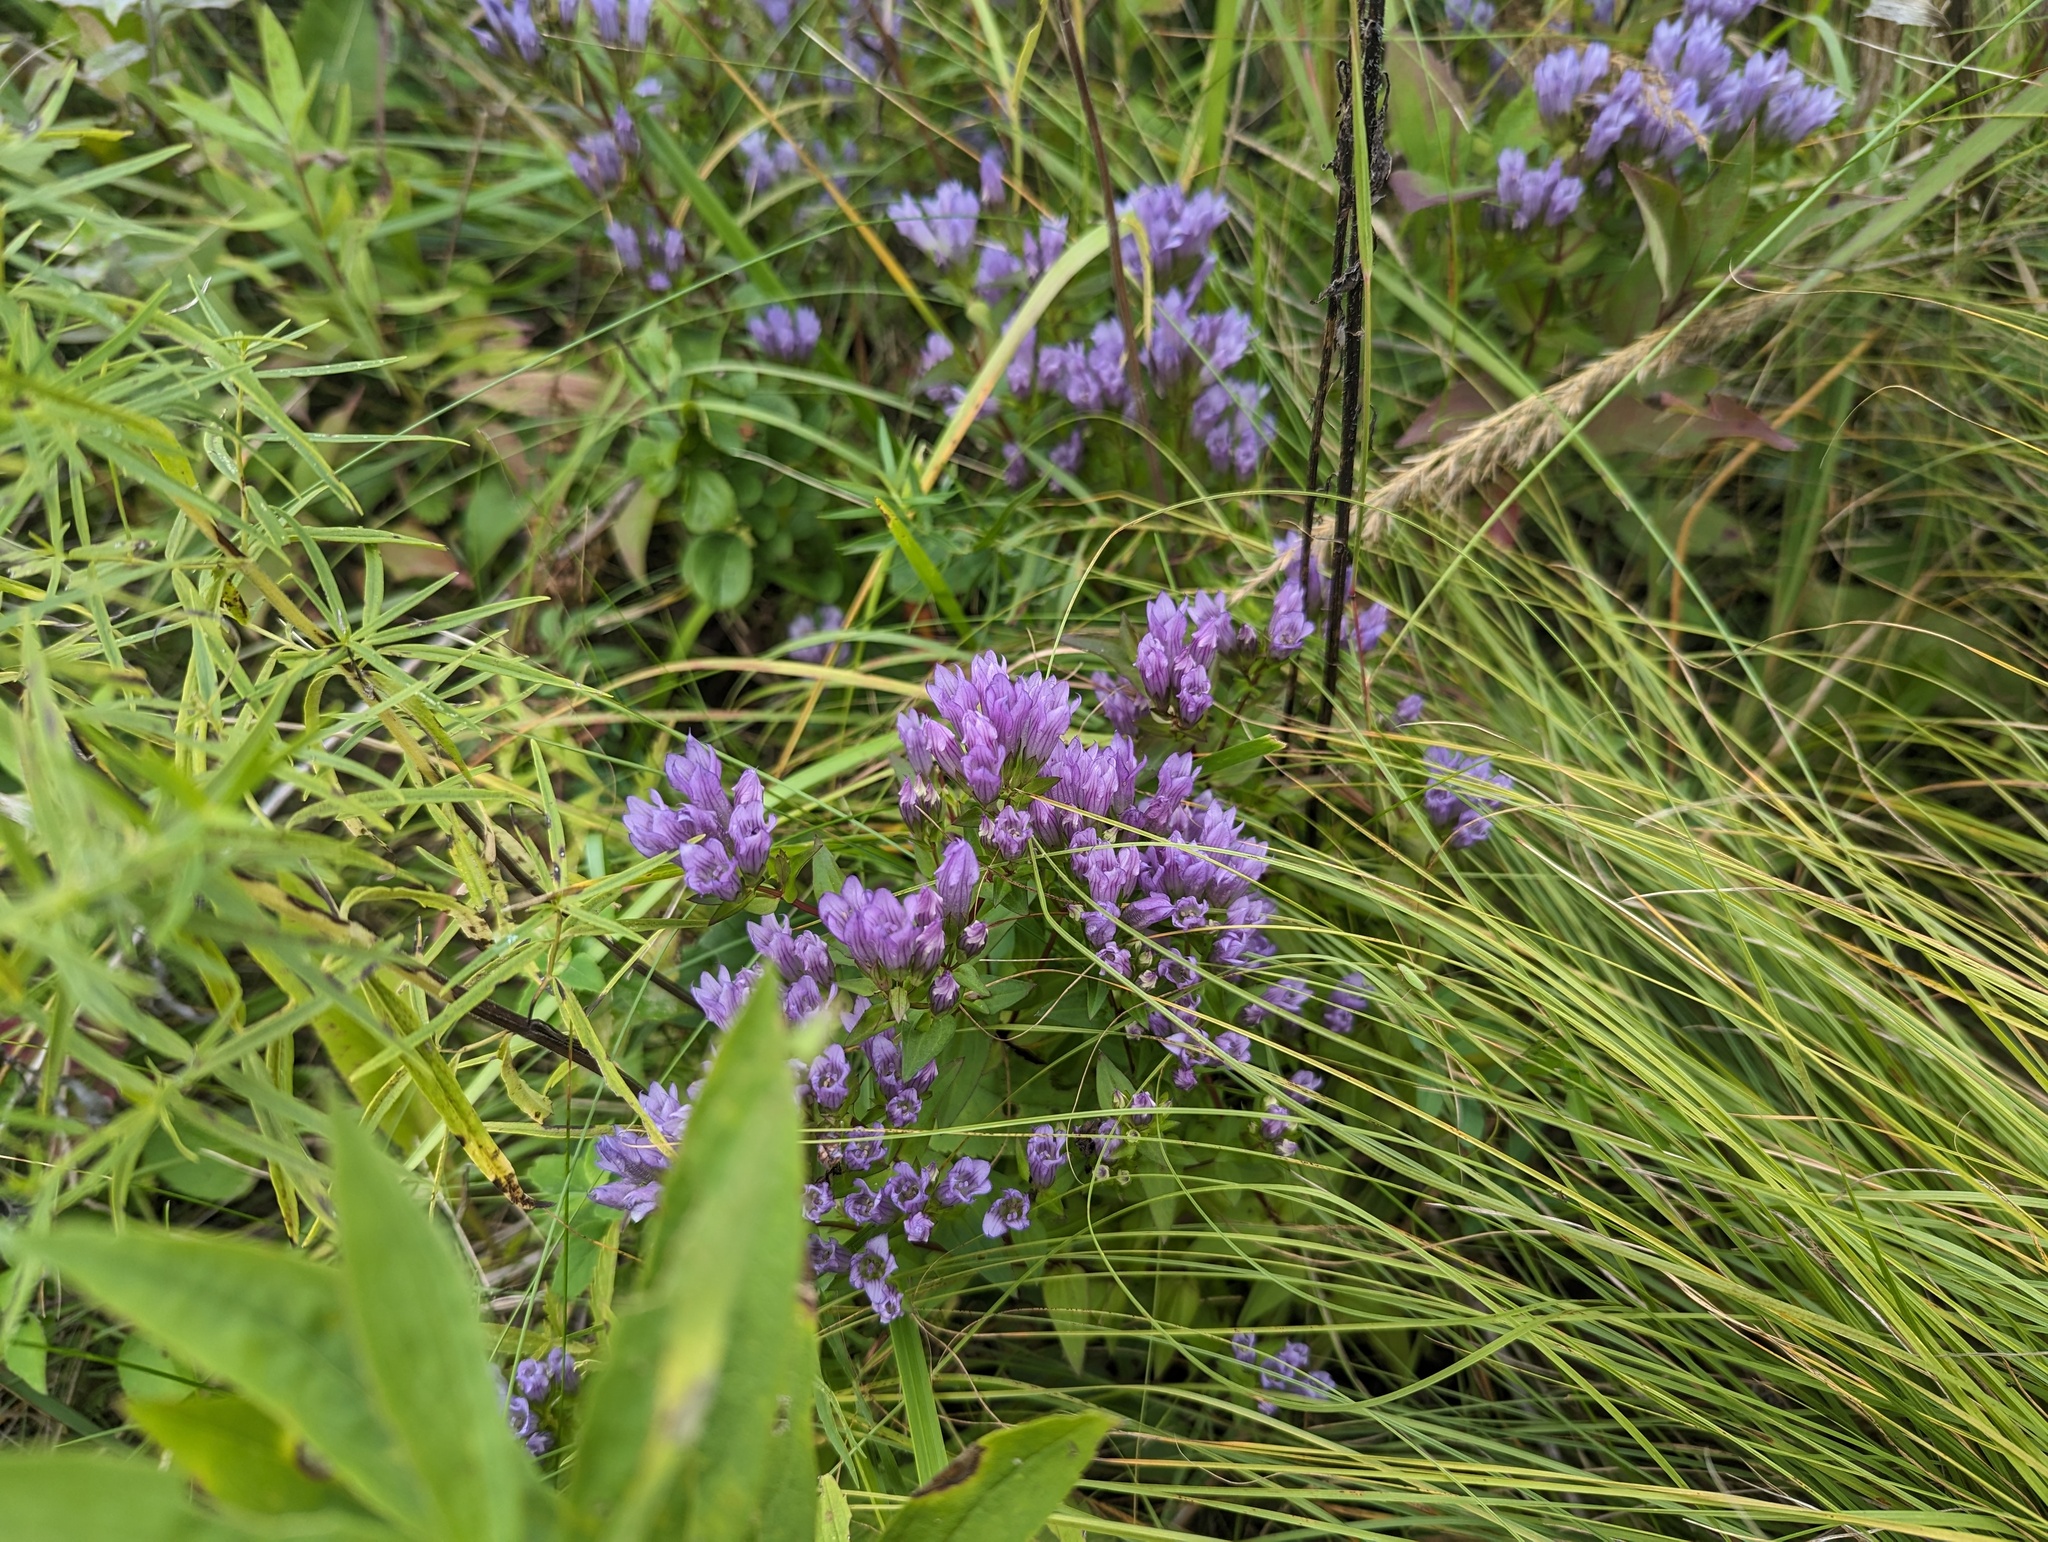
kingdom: Plantae
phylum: Tracheophyta
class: Magnoliopsida
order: Gentianales
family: Gentianaceae
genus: Gentianella
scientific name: Gentianella quinquefolia
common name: Agueweed
